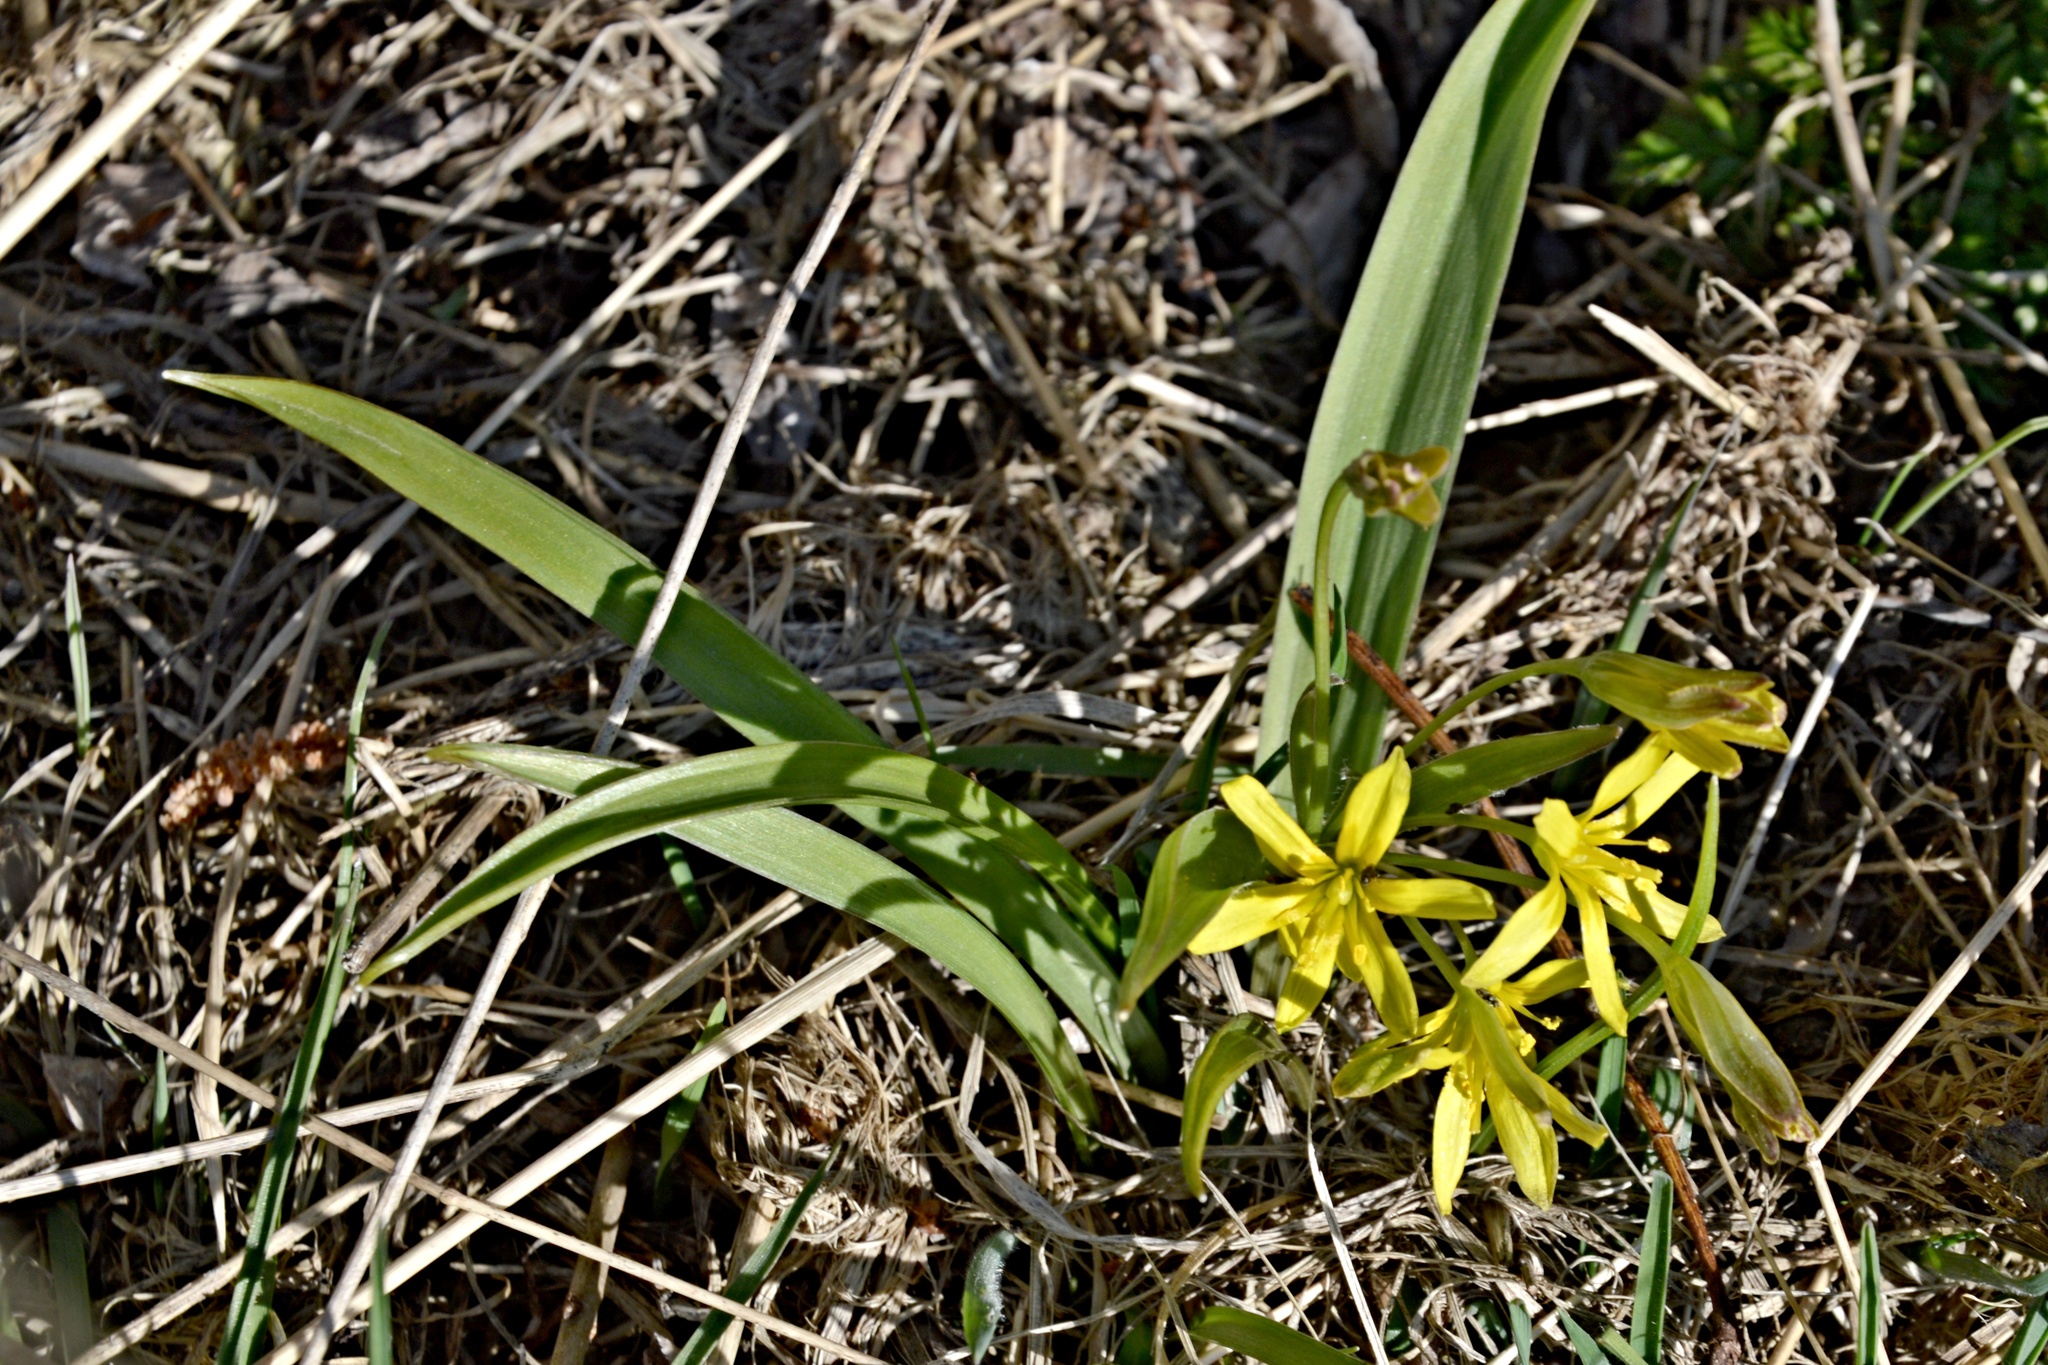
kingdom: Plantae
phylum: Tracheophyta
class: Liliopsida
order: Liliales
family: Liliaceae
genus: Gagea
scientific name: Gagea lutea
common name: Yellow star-of-bethlehem
